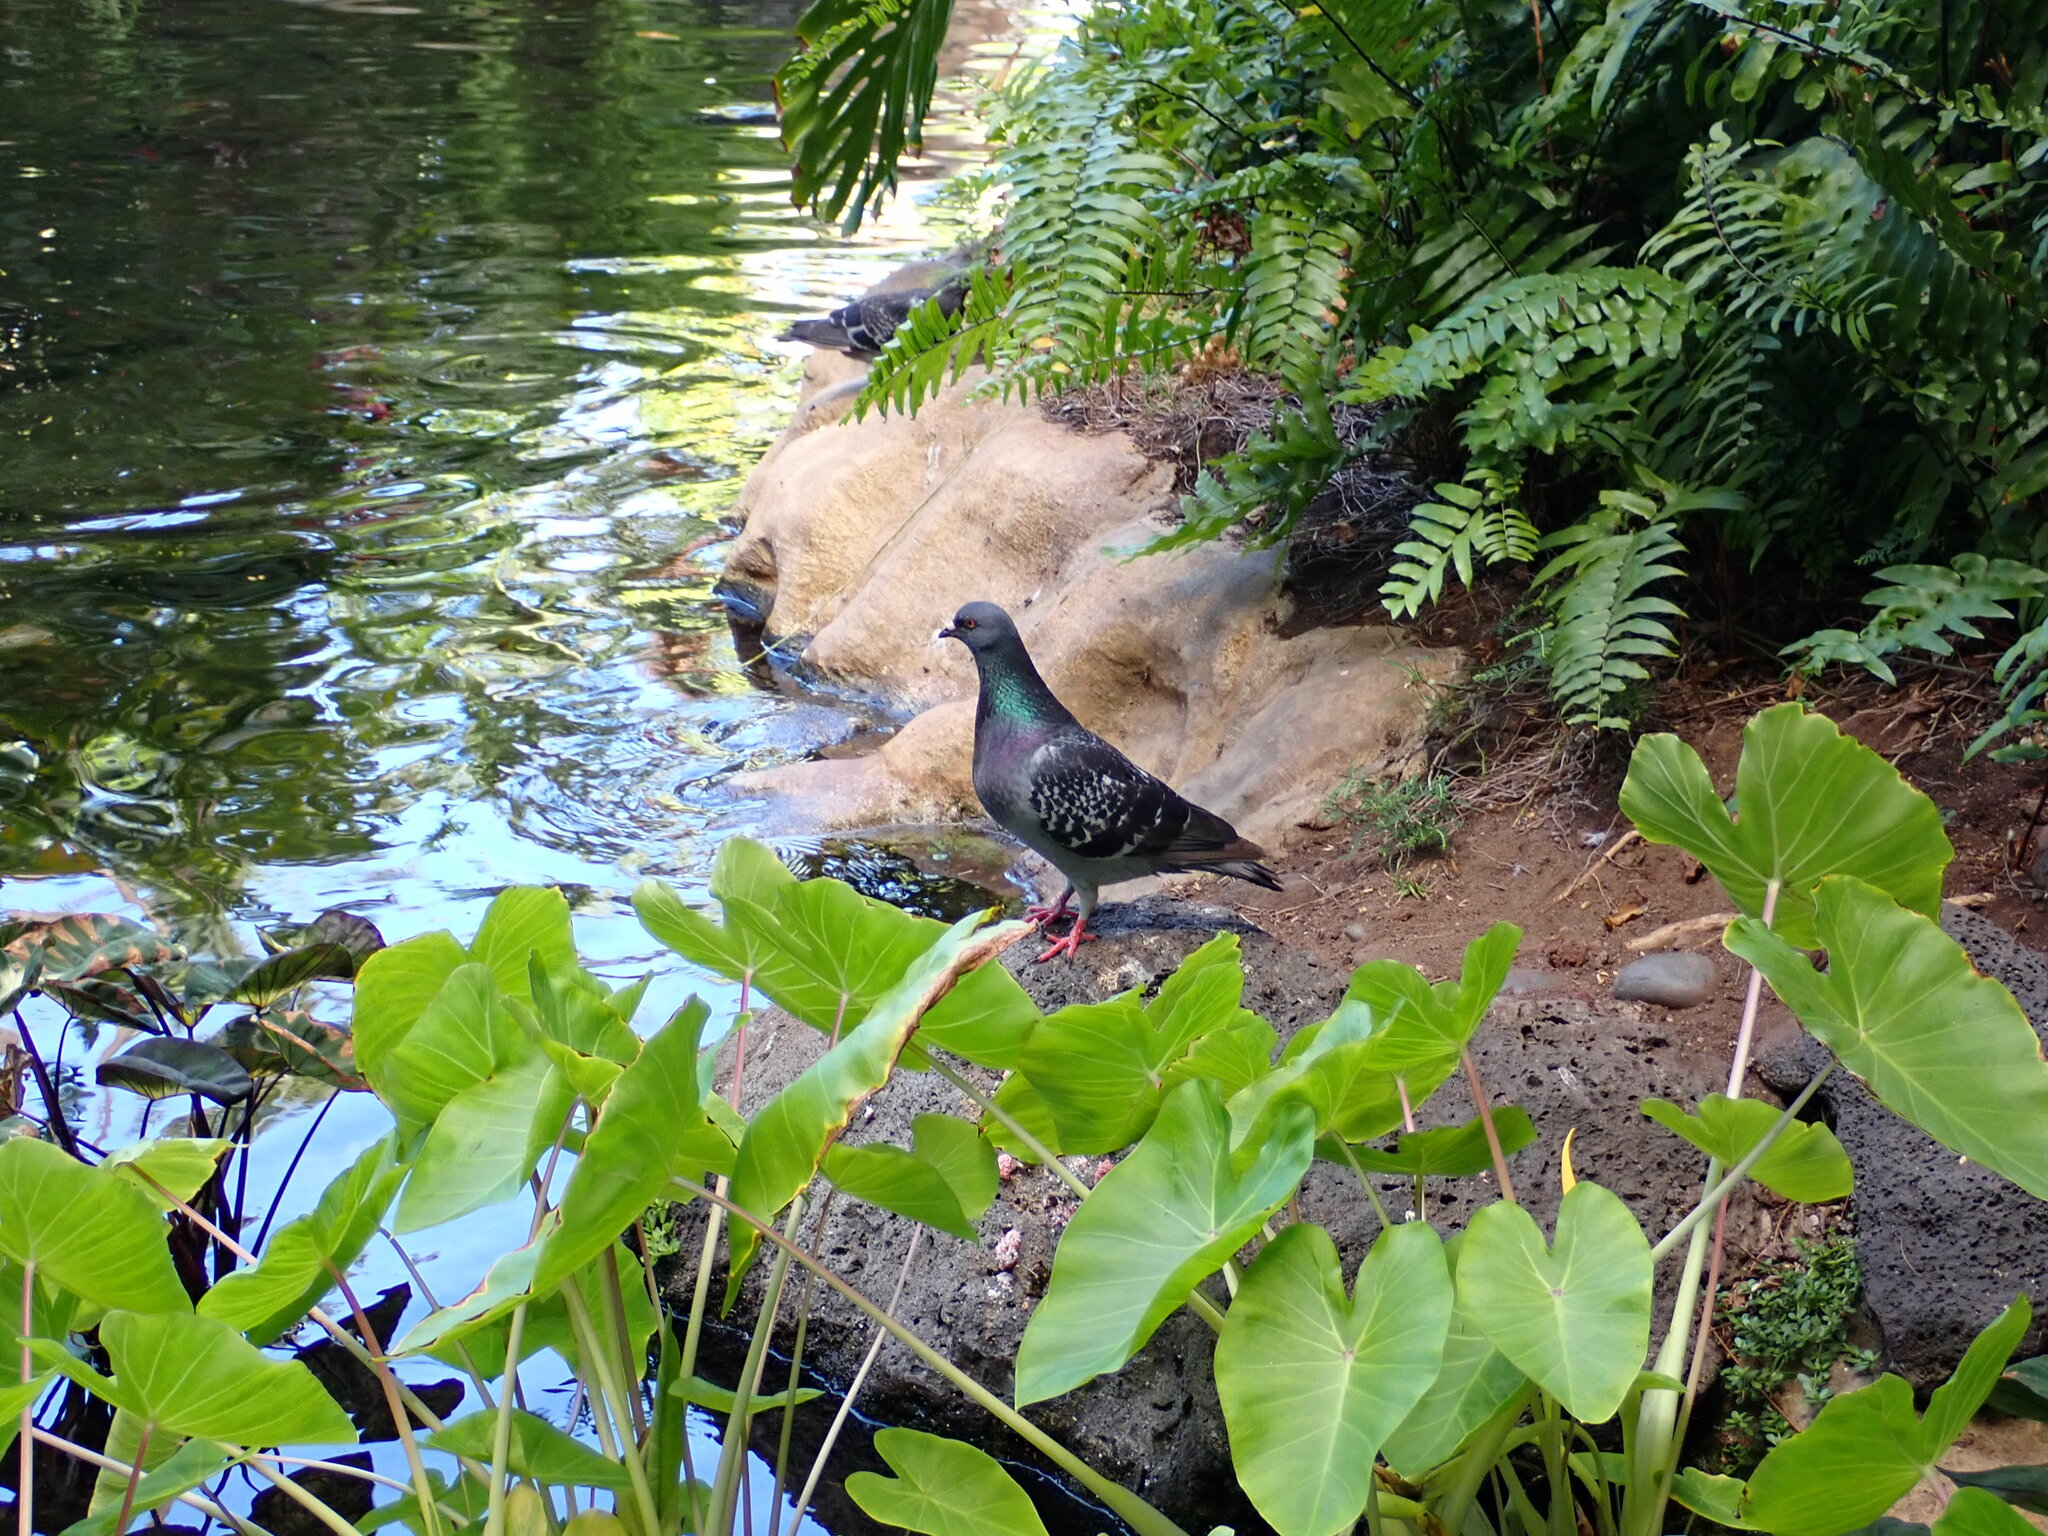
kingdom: Animalia
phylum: Chordata
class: Aves
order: Columbiformes
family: Columbidae
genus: Columba
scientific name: Columba livia
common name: Rock pigeon
